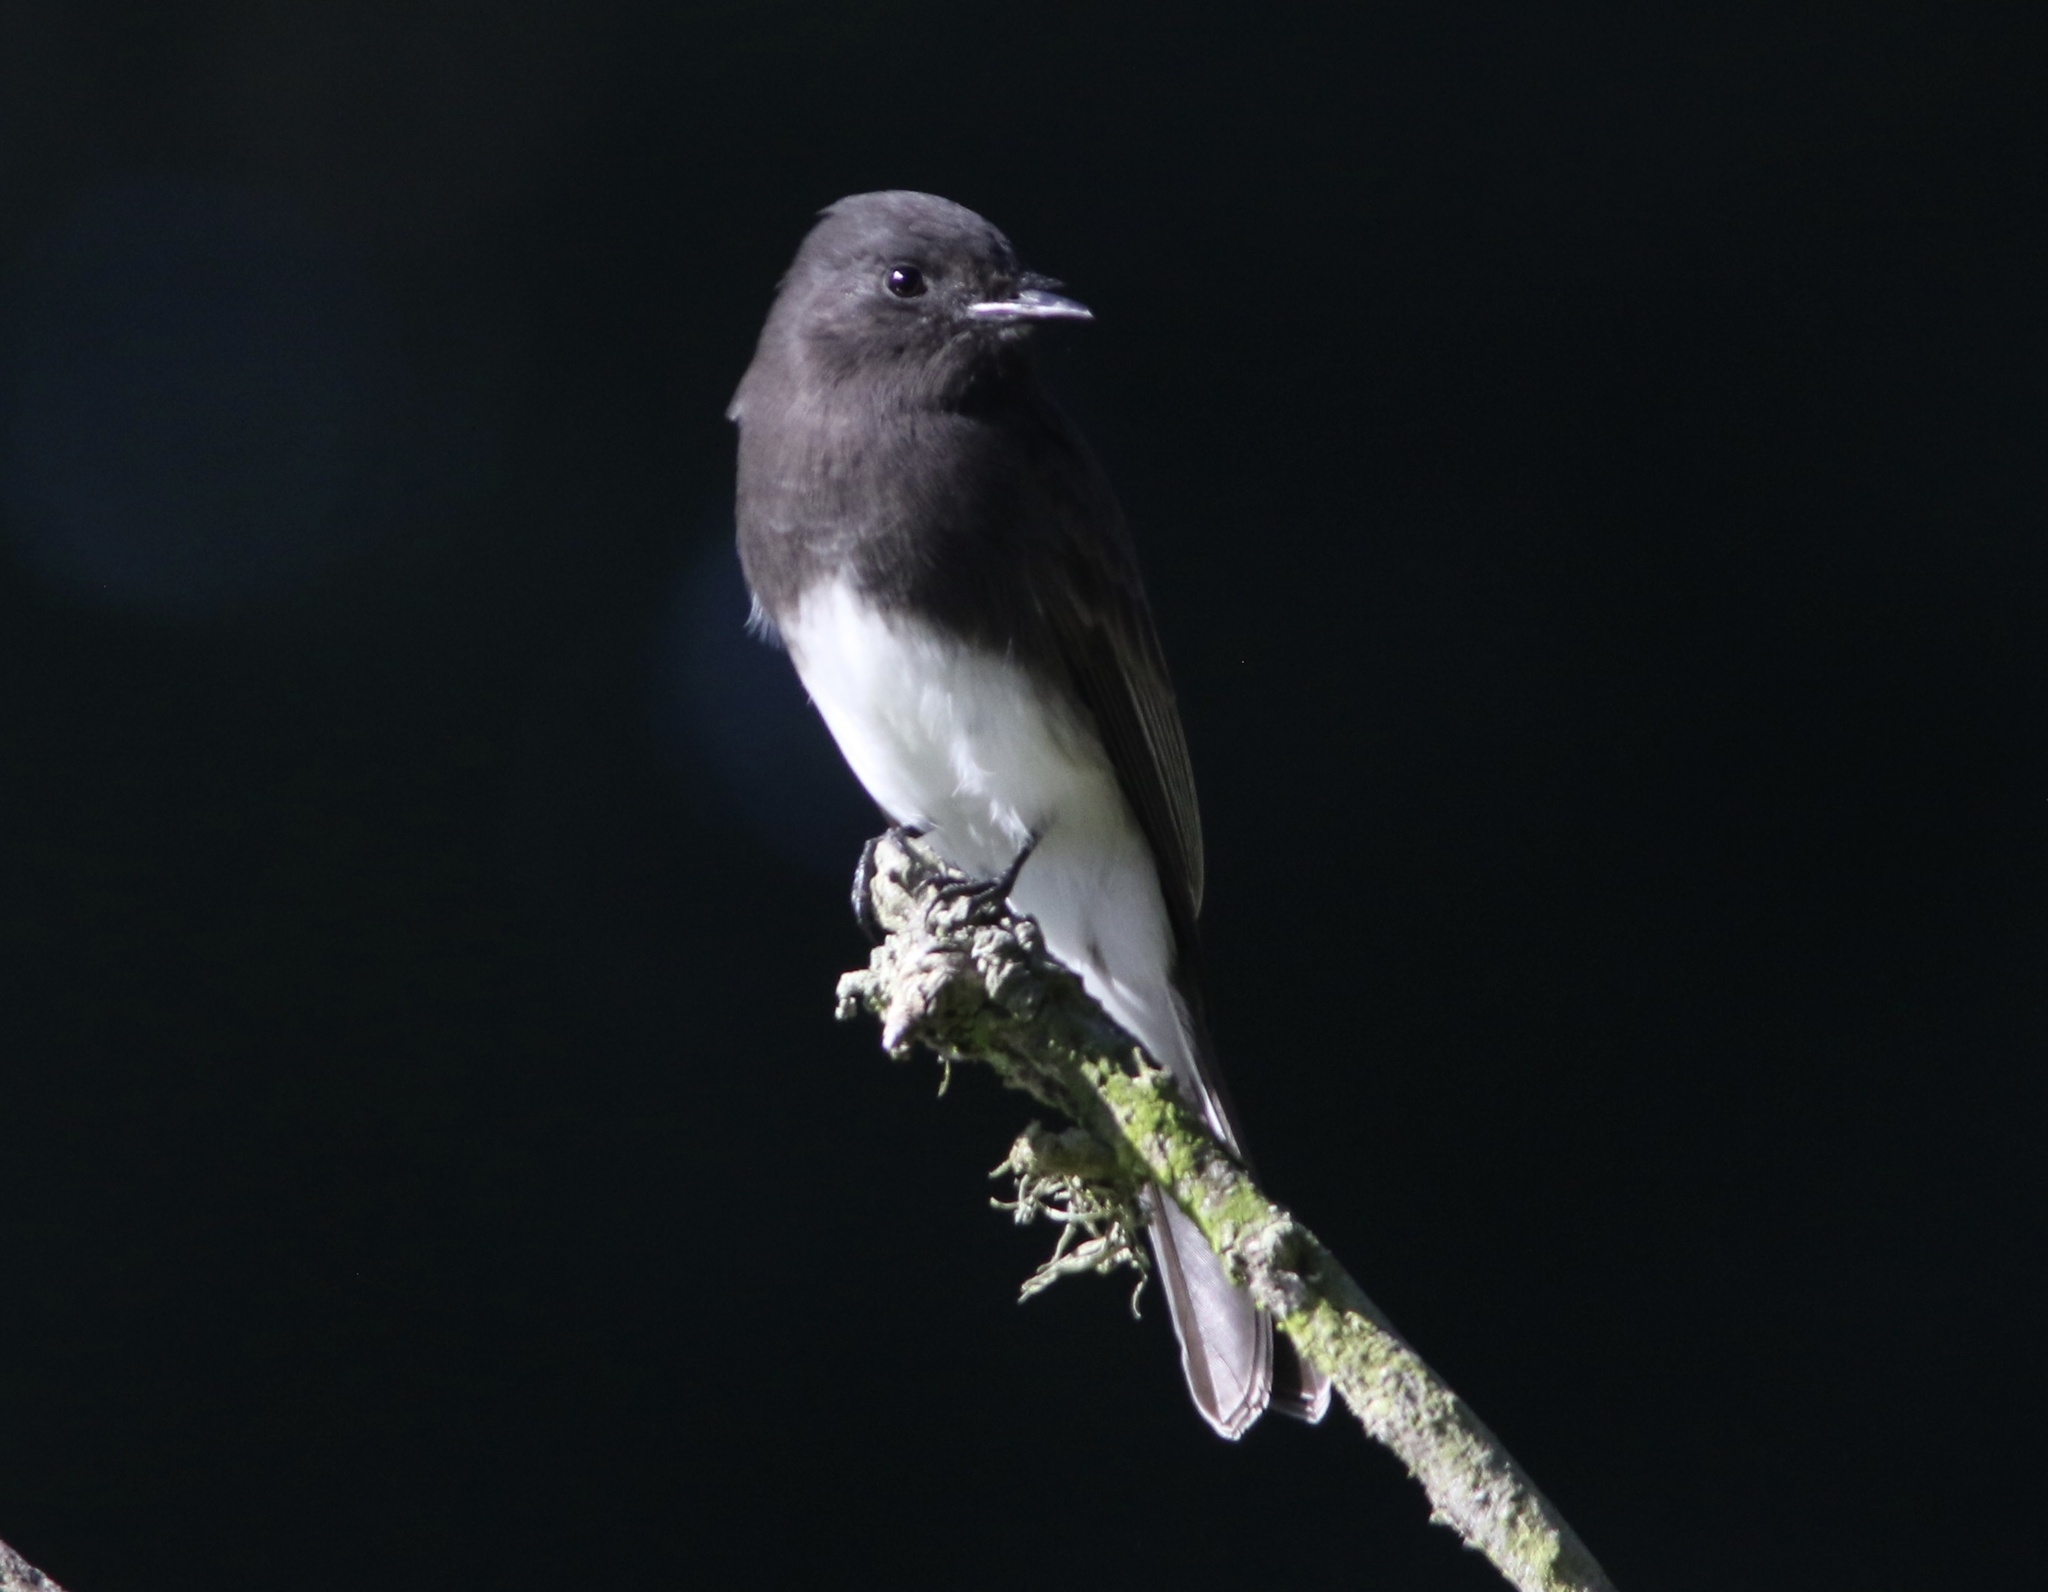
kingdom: Animalia
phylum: Chordata
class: Aves
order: Passeriformes
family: Tyrannidae
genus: Sayornis
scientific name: Sayornis nigricans
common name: Black phoebe
